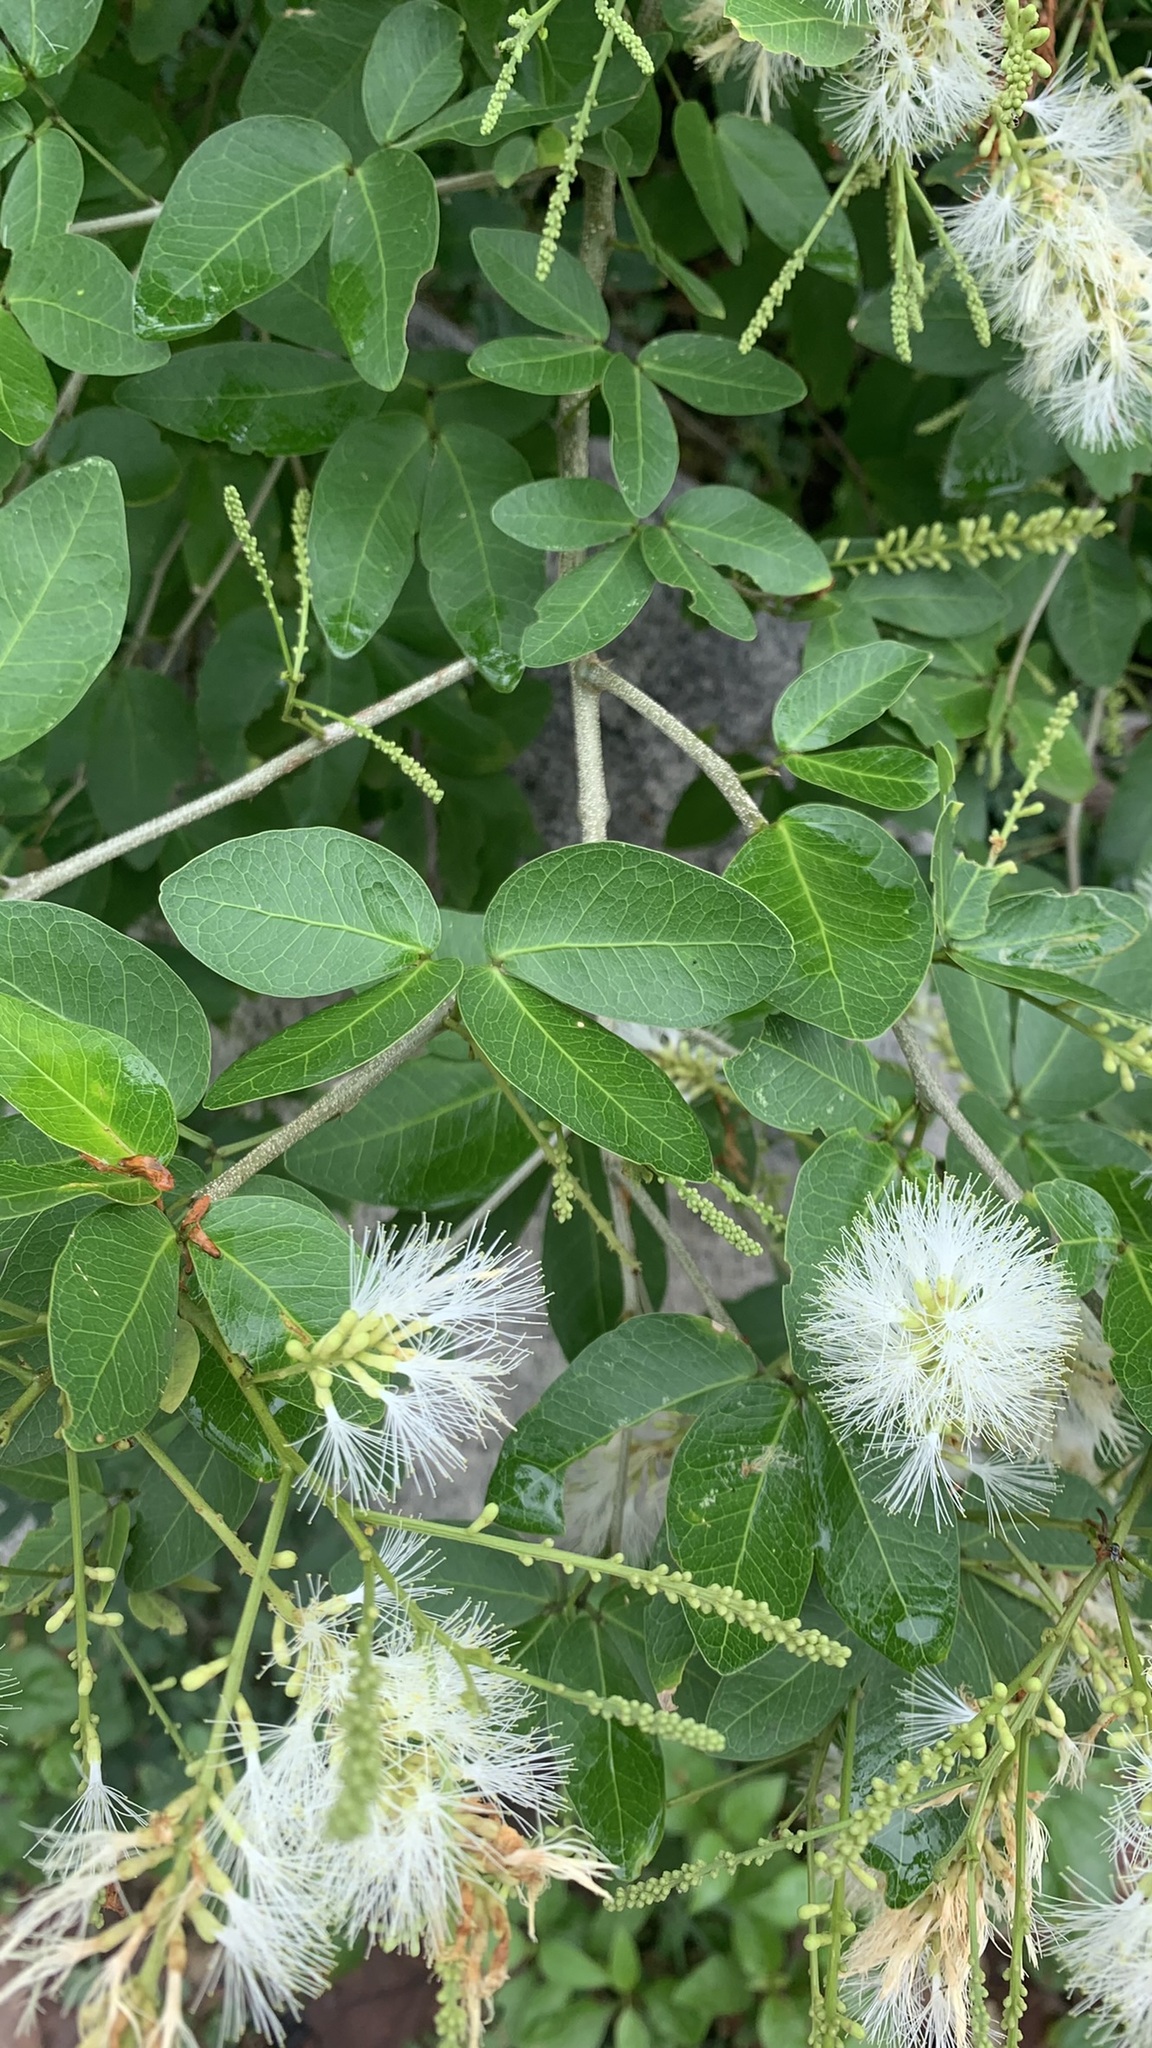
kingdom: Plantae
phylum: Tracheophyta
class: Magnoliopsida
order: Fabales
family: Fabaceae
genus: Pithecellobium
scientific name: Pithecellobium lanceolatum
